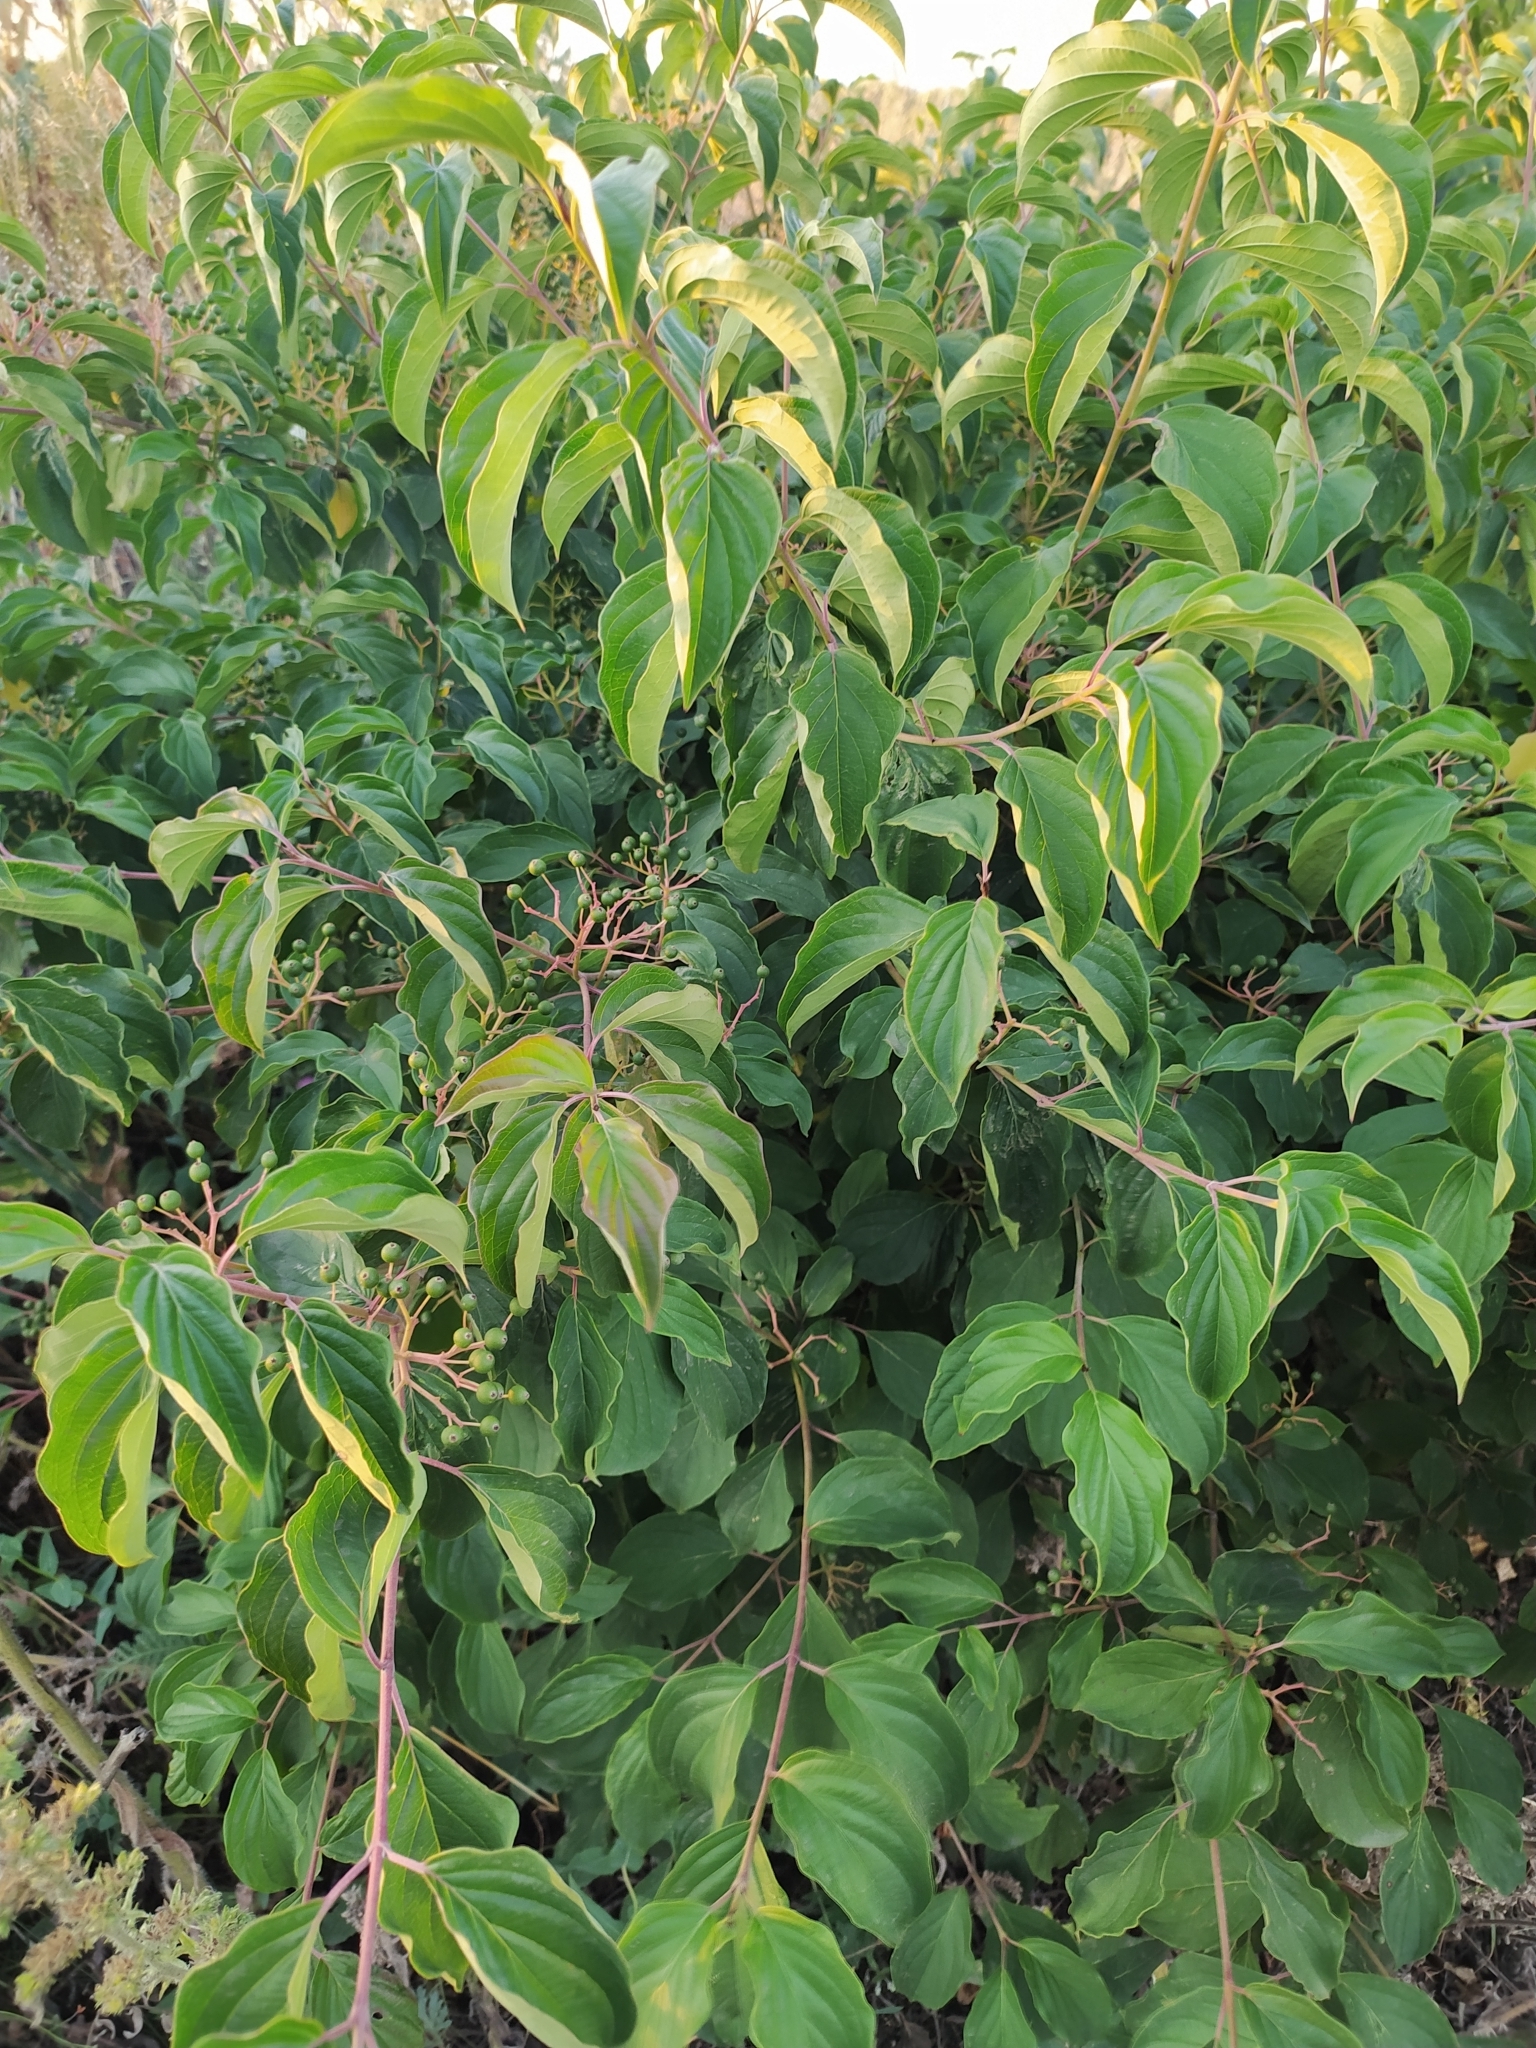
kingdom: Plantae
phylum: Tracheophyta
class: Magnoliopsida
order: Cornales
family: Cornaceae
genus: Cornus
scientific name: Cornus sanguinea
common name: Dogwood
